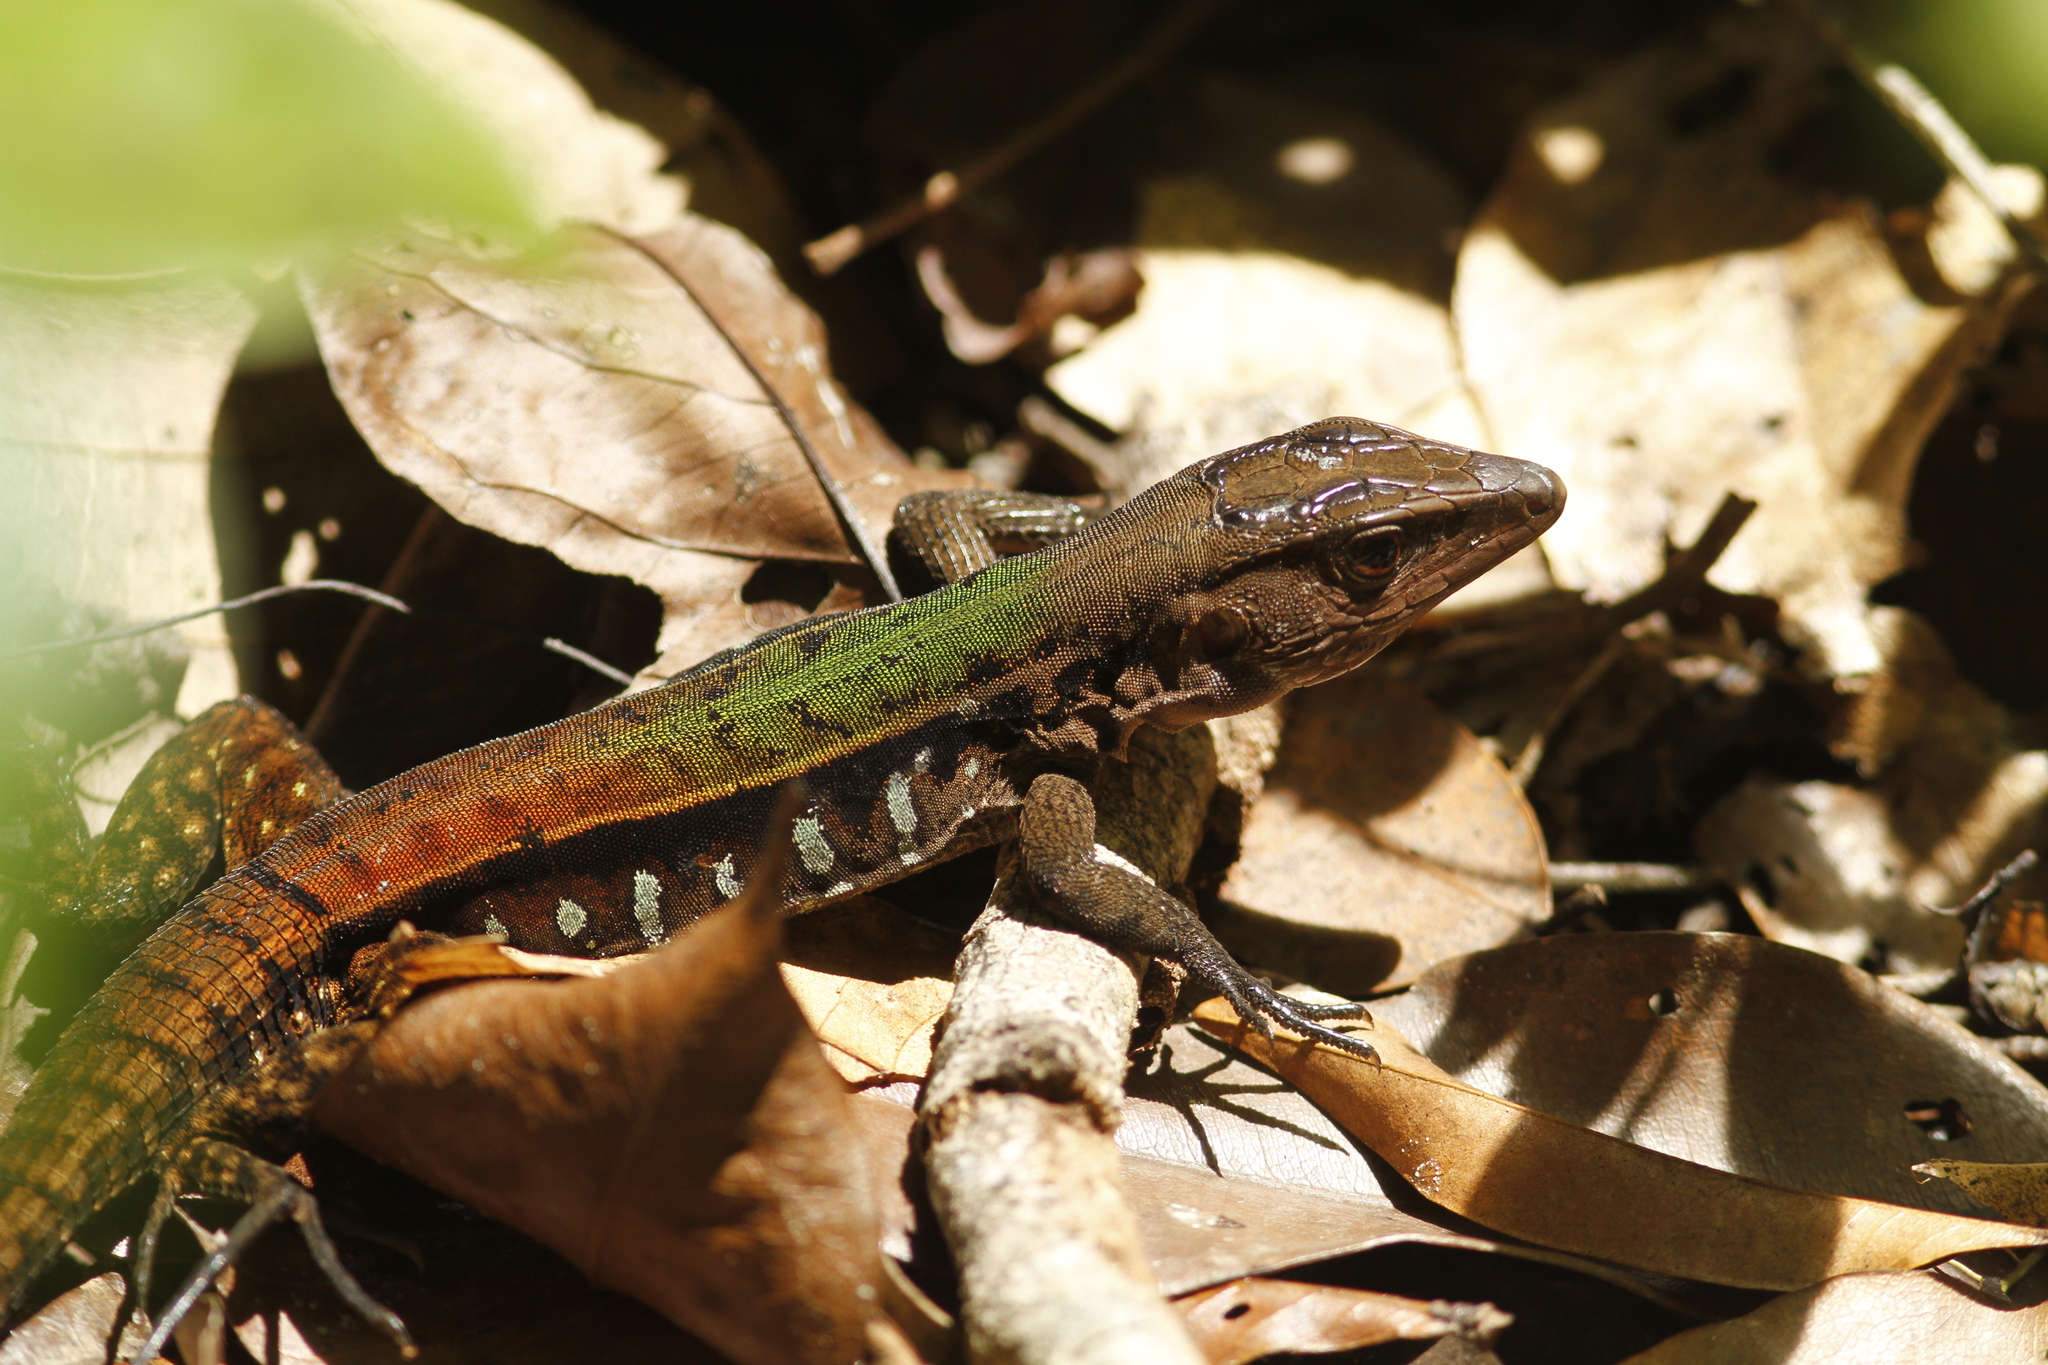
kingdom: Animalia
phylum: Chordata
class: Squamata
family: Teiidae
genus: Kentropyx
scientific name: Kentropyx calcarata
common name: Striped forest whiptail
